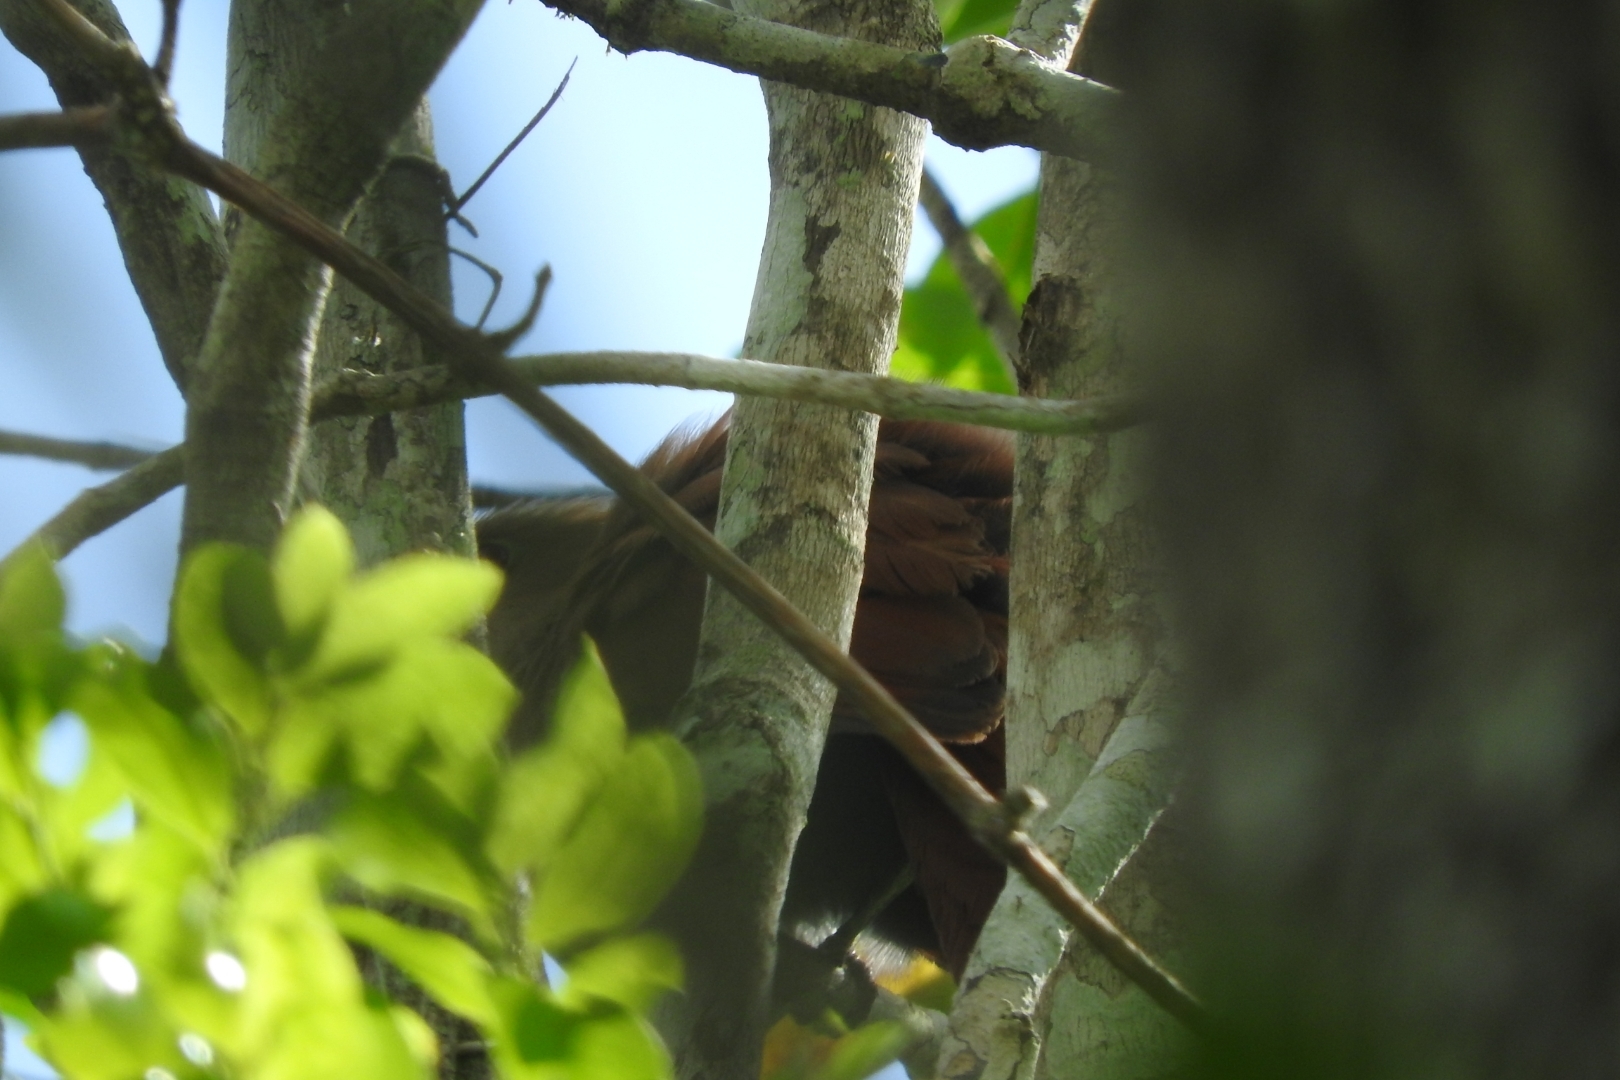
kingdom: Animalia
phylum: Chordata
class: Aves
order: Cuculiformes
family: Cuculidae
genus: Piaya
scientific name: Piaya cayana
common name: Squirrel cuckoo
